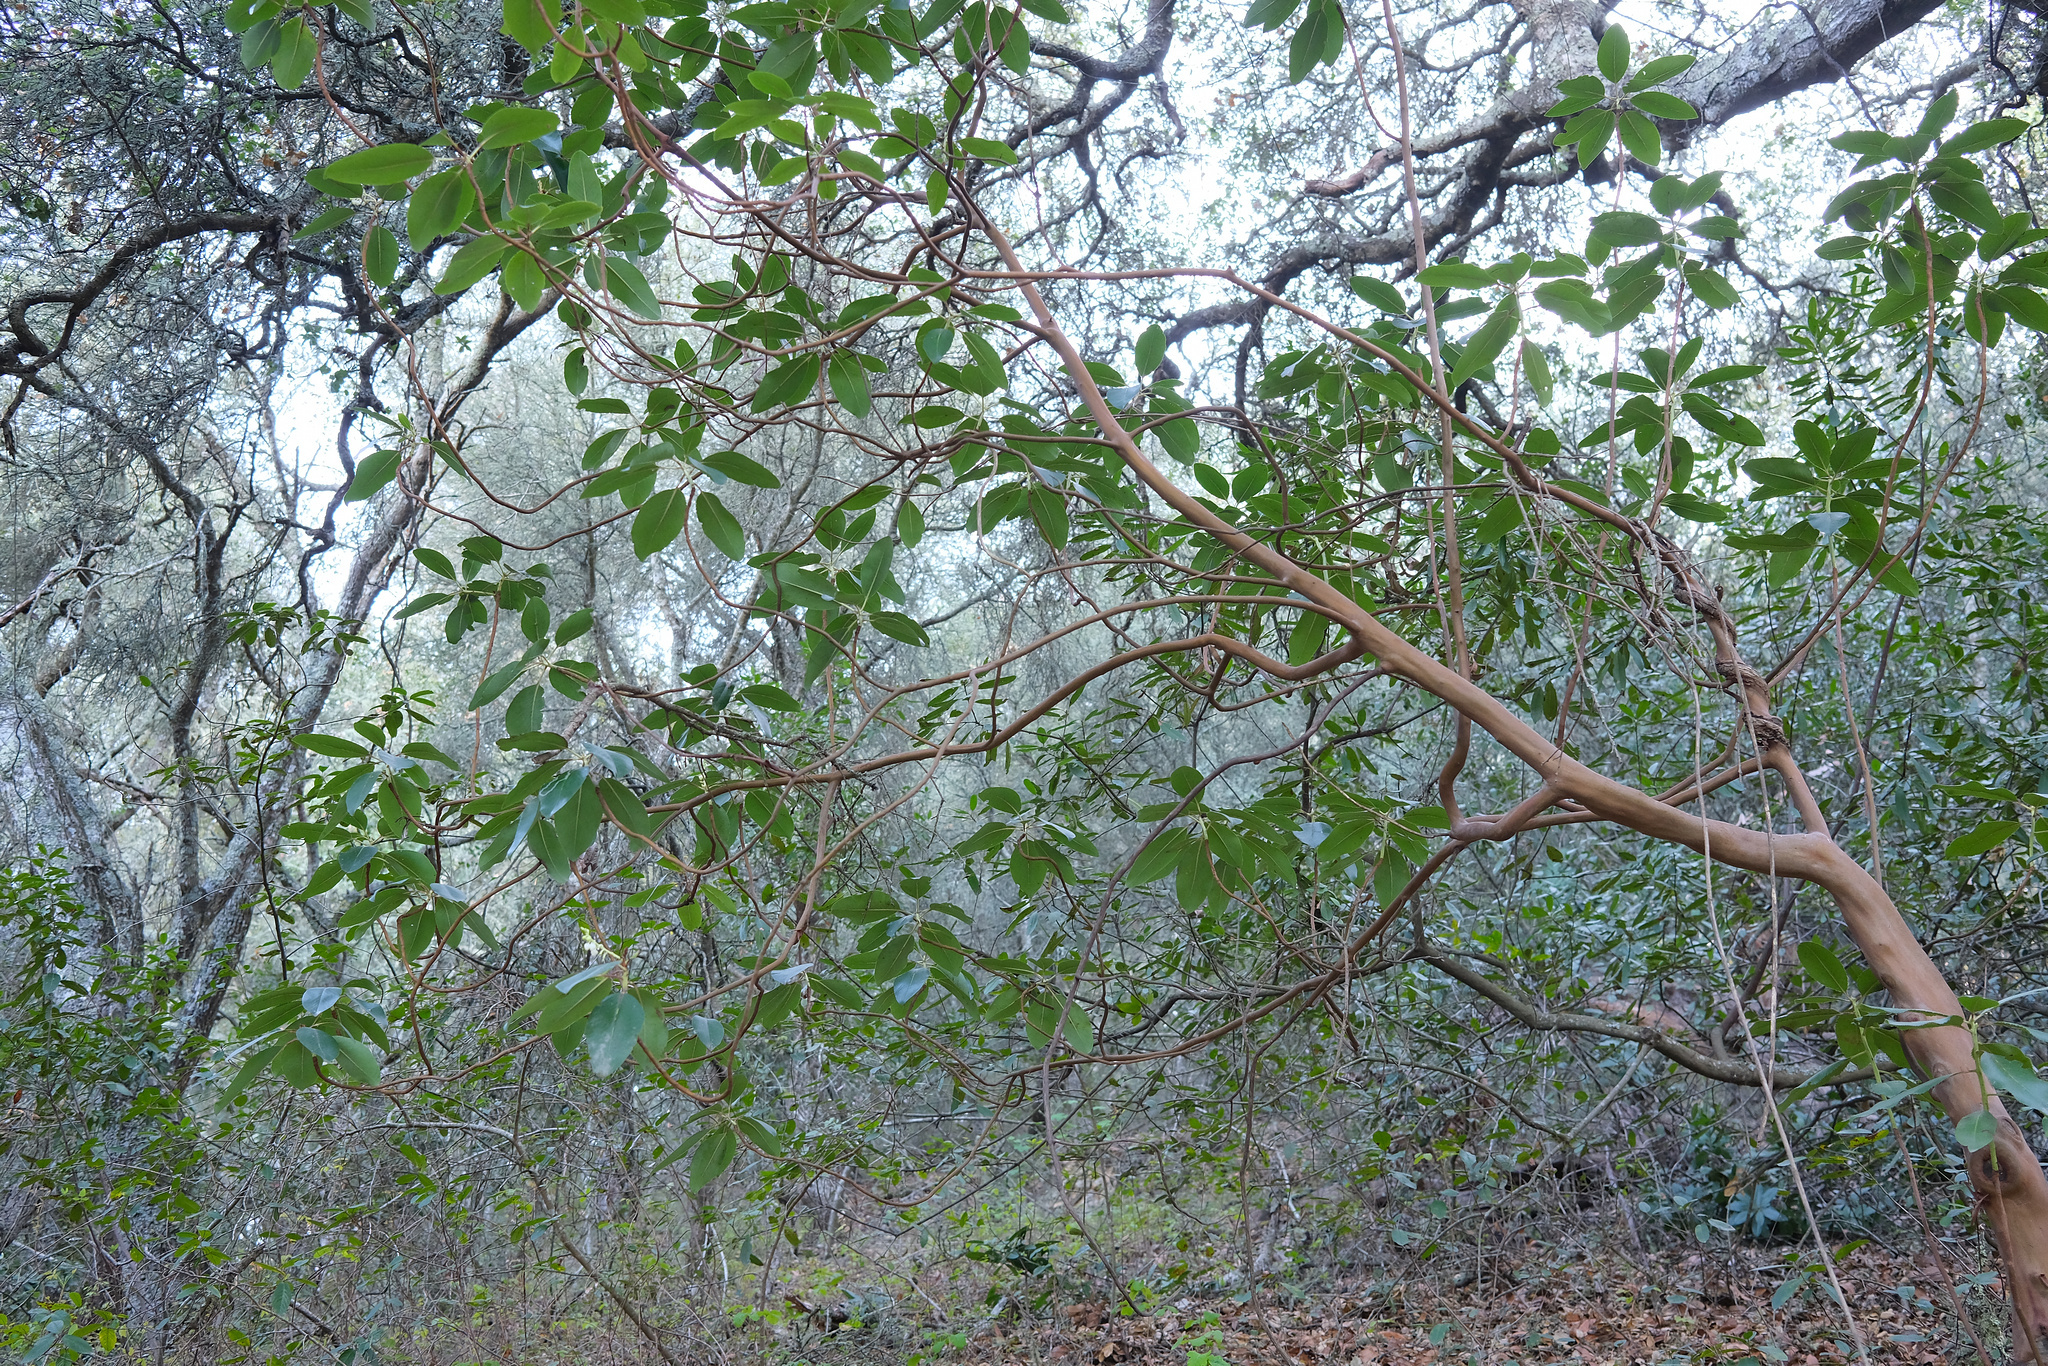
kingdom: Plantae
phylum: Tracheophyta
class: Magnoliopsida
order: Ericales
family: Ericaceae
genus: Arbutus
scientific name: Arbutus menziesii
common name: Pacific madrone
